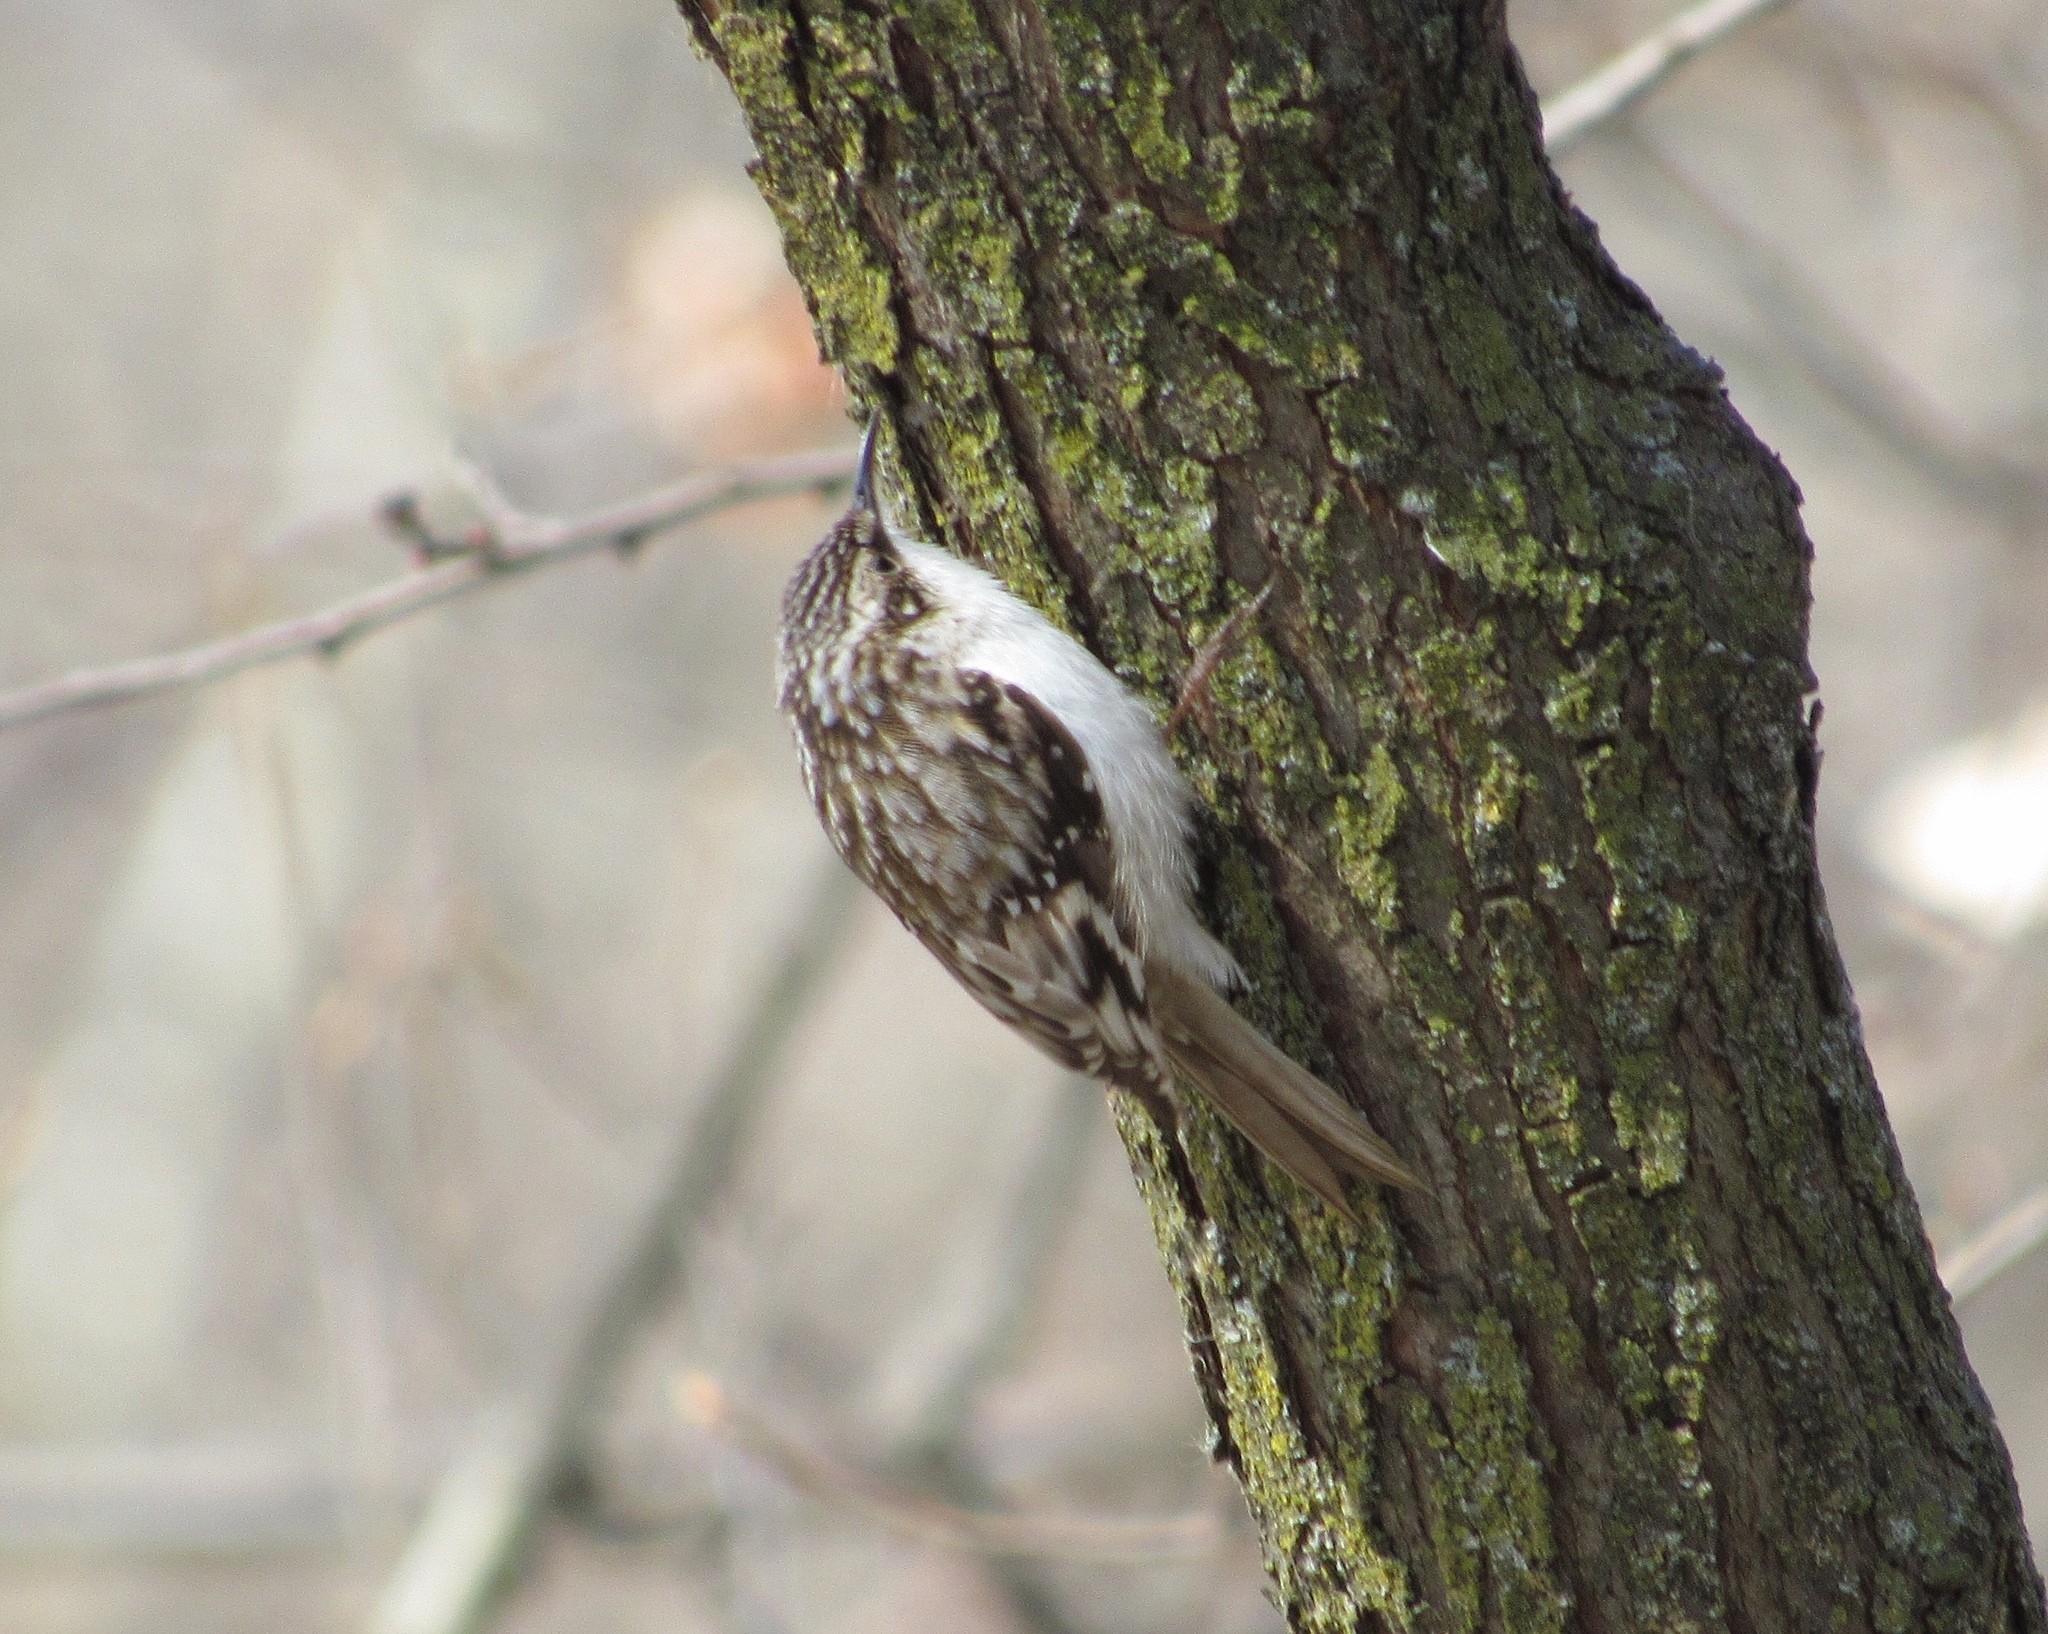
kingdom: Animalia
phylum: Chordata
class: Aves
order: Passeriformes
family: Certhiidae
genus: Certhia
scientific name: Certhia americana
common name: Brown creeper
